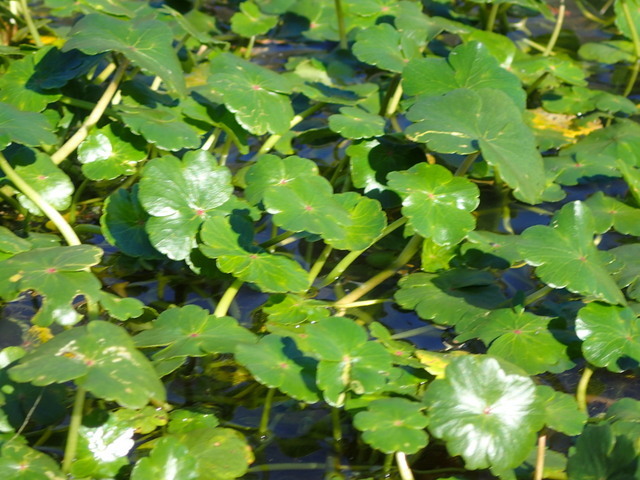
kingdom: Plantae
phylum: Tracheophyta
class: Magnoliopsida
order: Apiales
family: Araliaceae
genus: Hydrocotyle
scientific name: Hydrocotyle ranunculoides
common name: Floating pennywort
